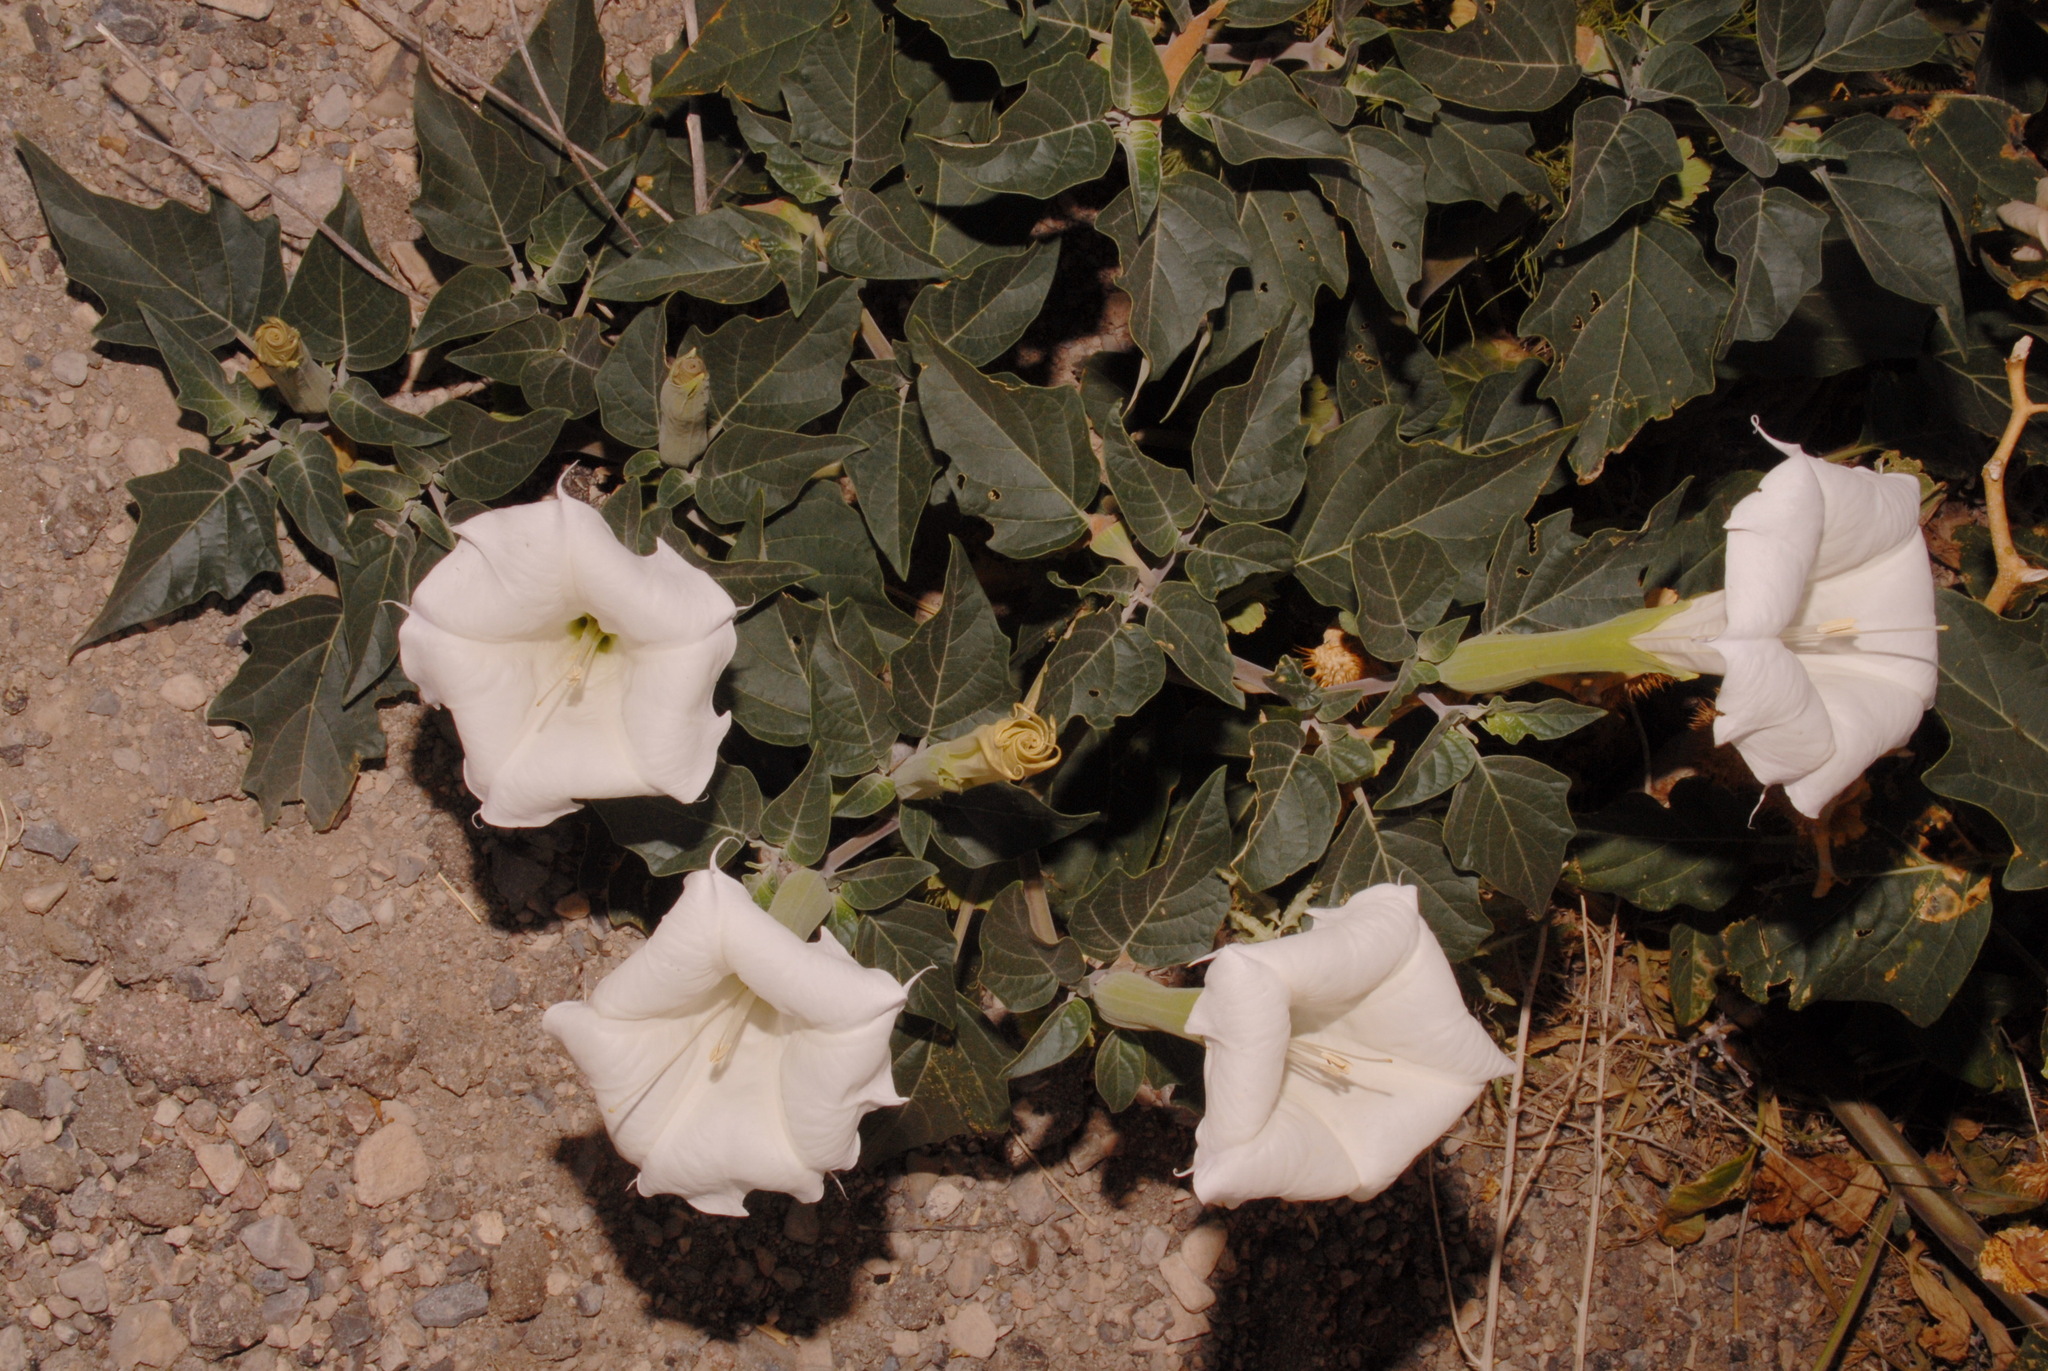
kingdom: Plantae
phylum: Tracheophyta
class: Magnoliopsida
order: Solanales
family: Solanaceae
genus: Datura
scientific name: Datura wrightii
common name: Sacred thorn-apple
